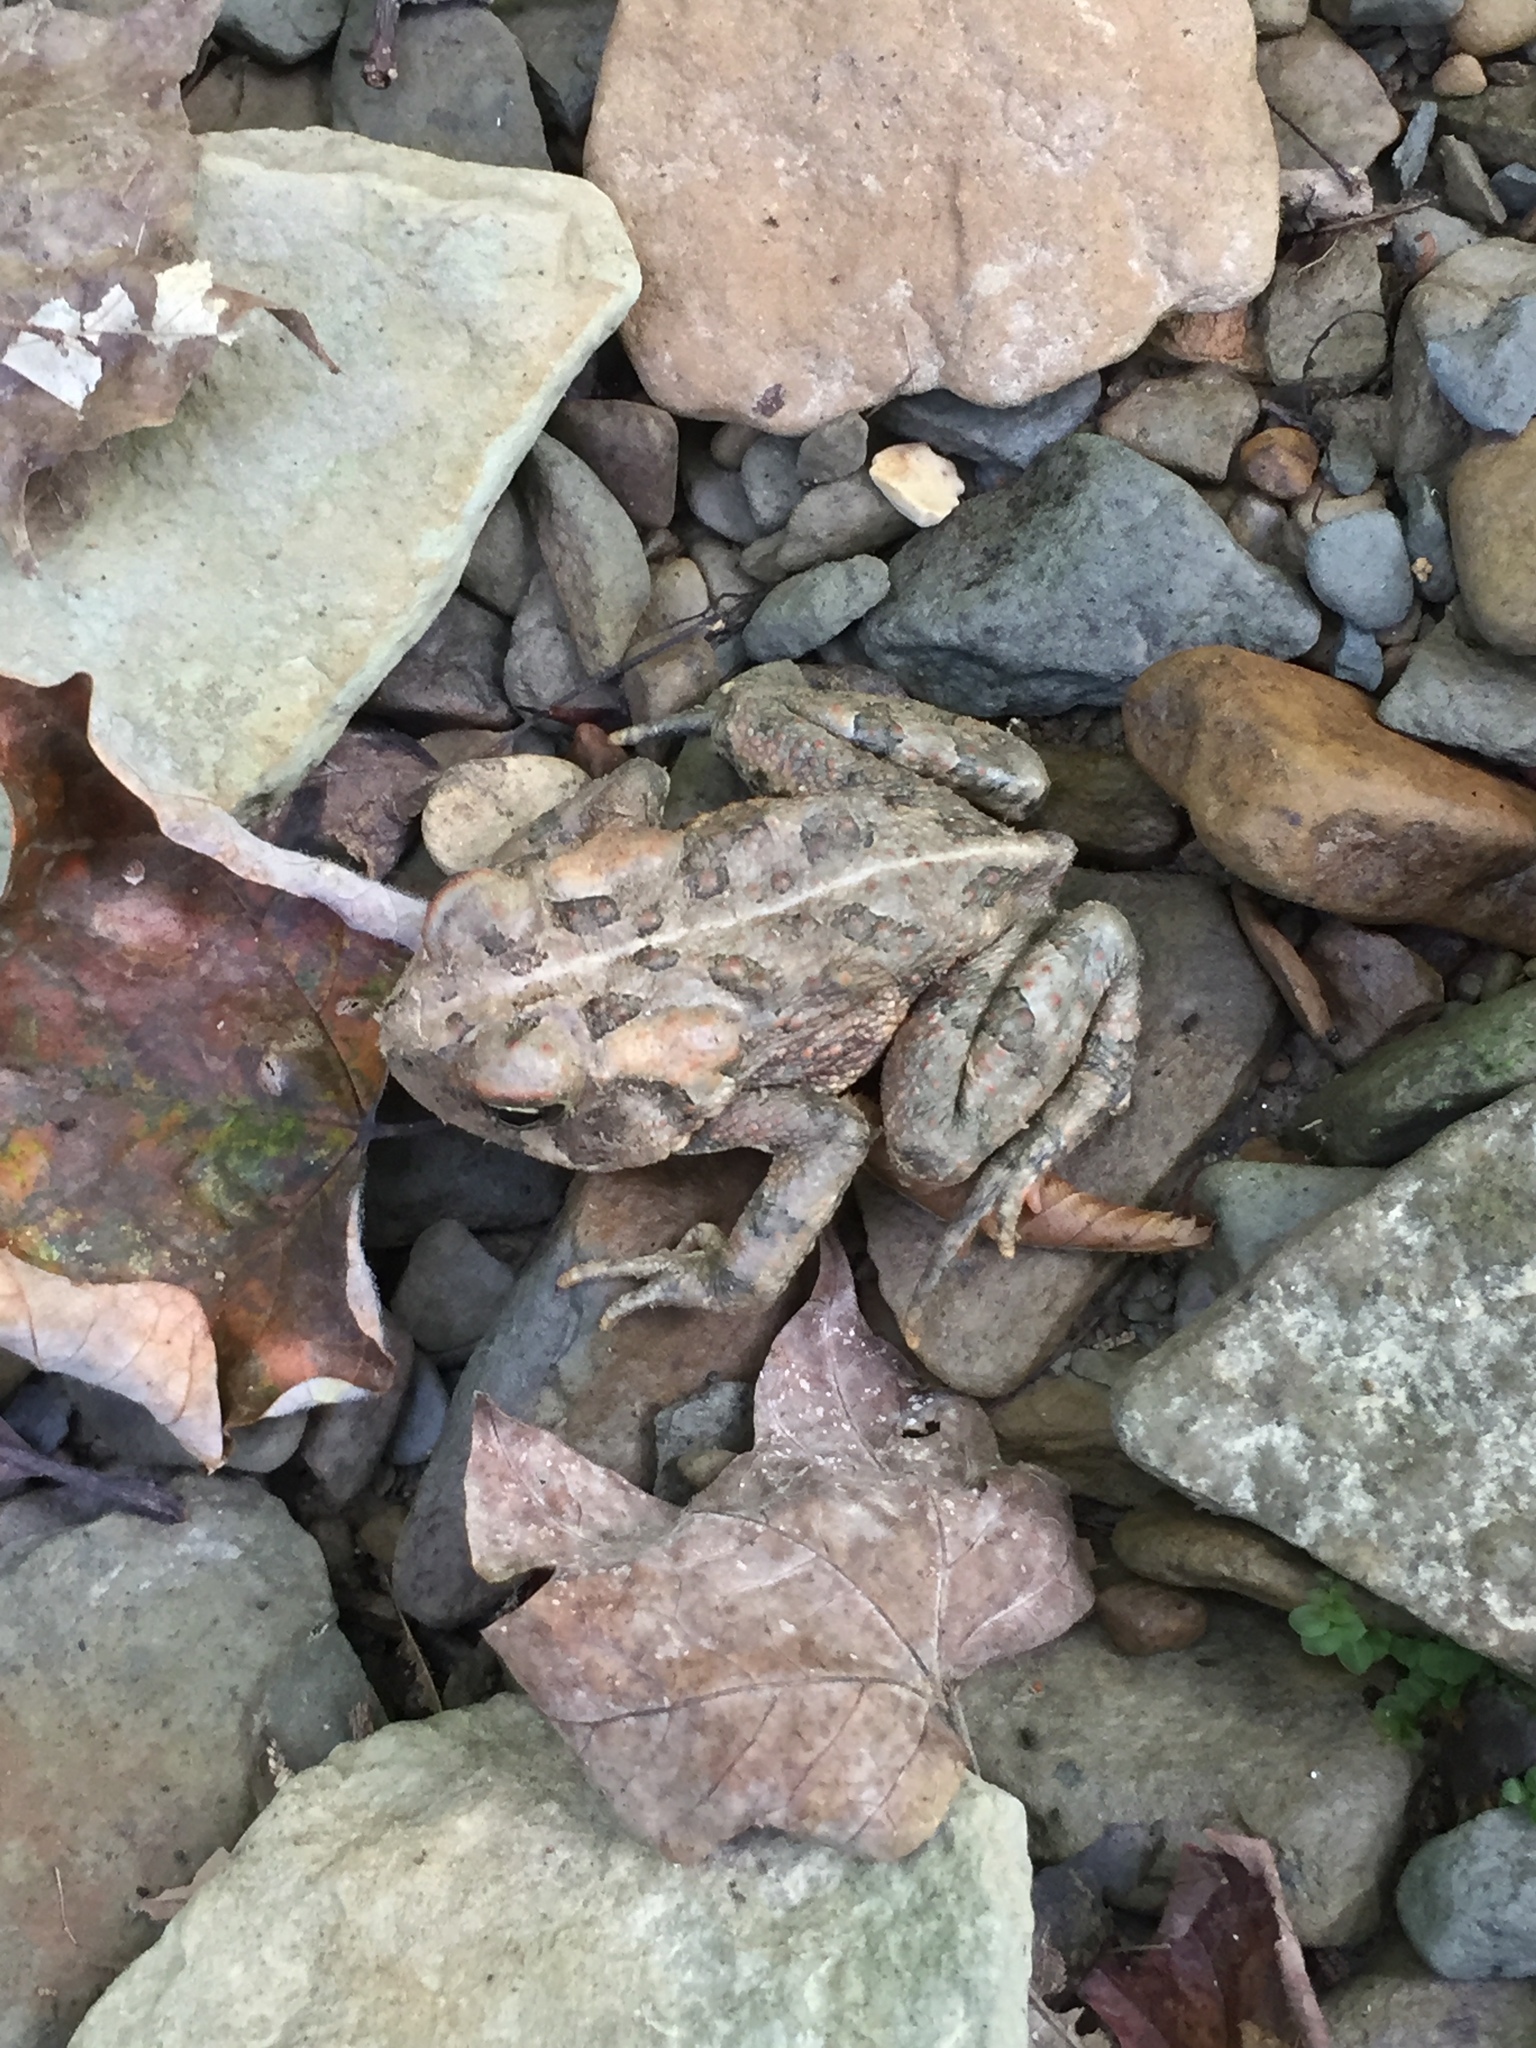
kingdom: Animalia
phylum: Chordata
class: Amphibia
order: Anura
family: Bufonidae
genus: Anaxyrus
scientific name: Anaxyrus americanus
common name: American toad
